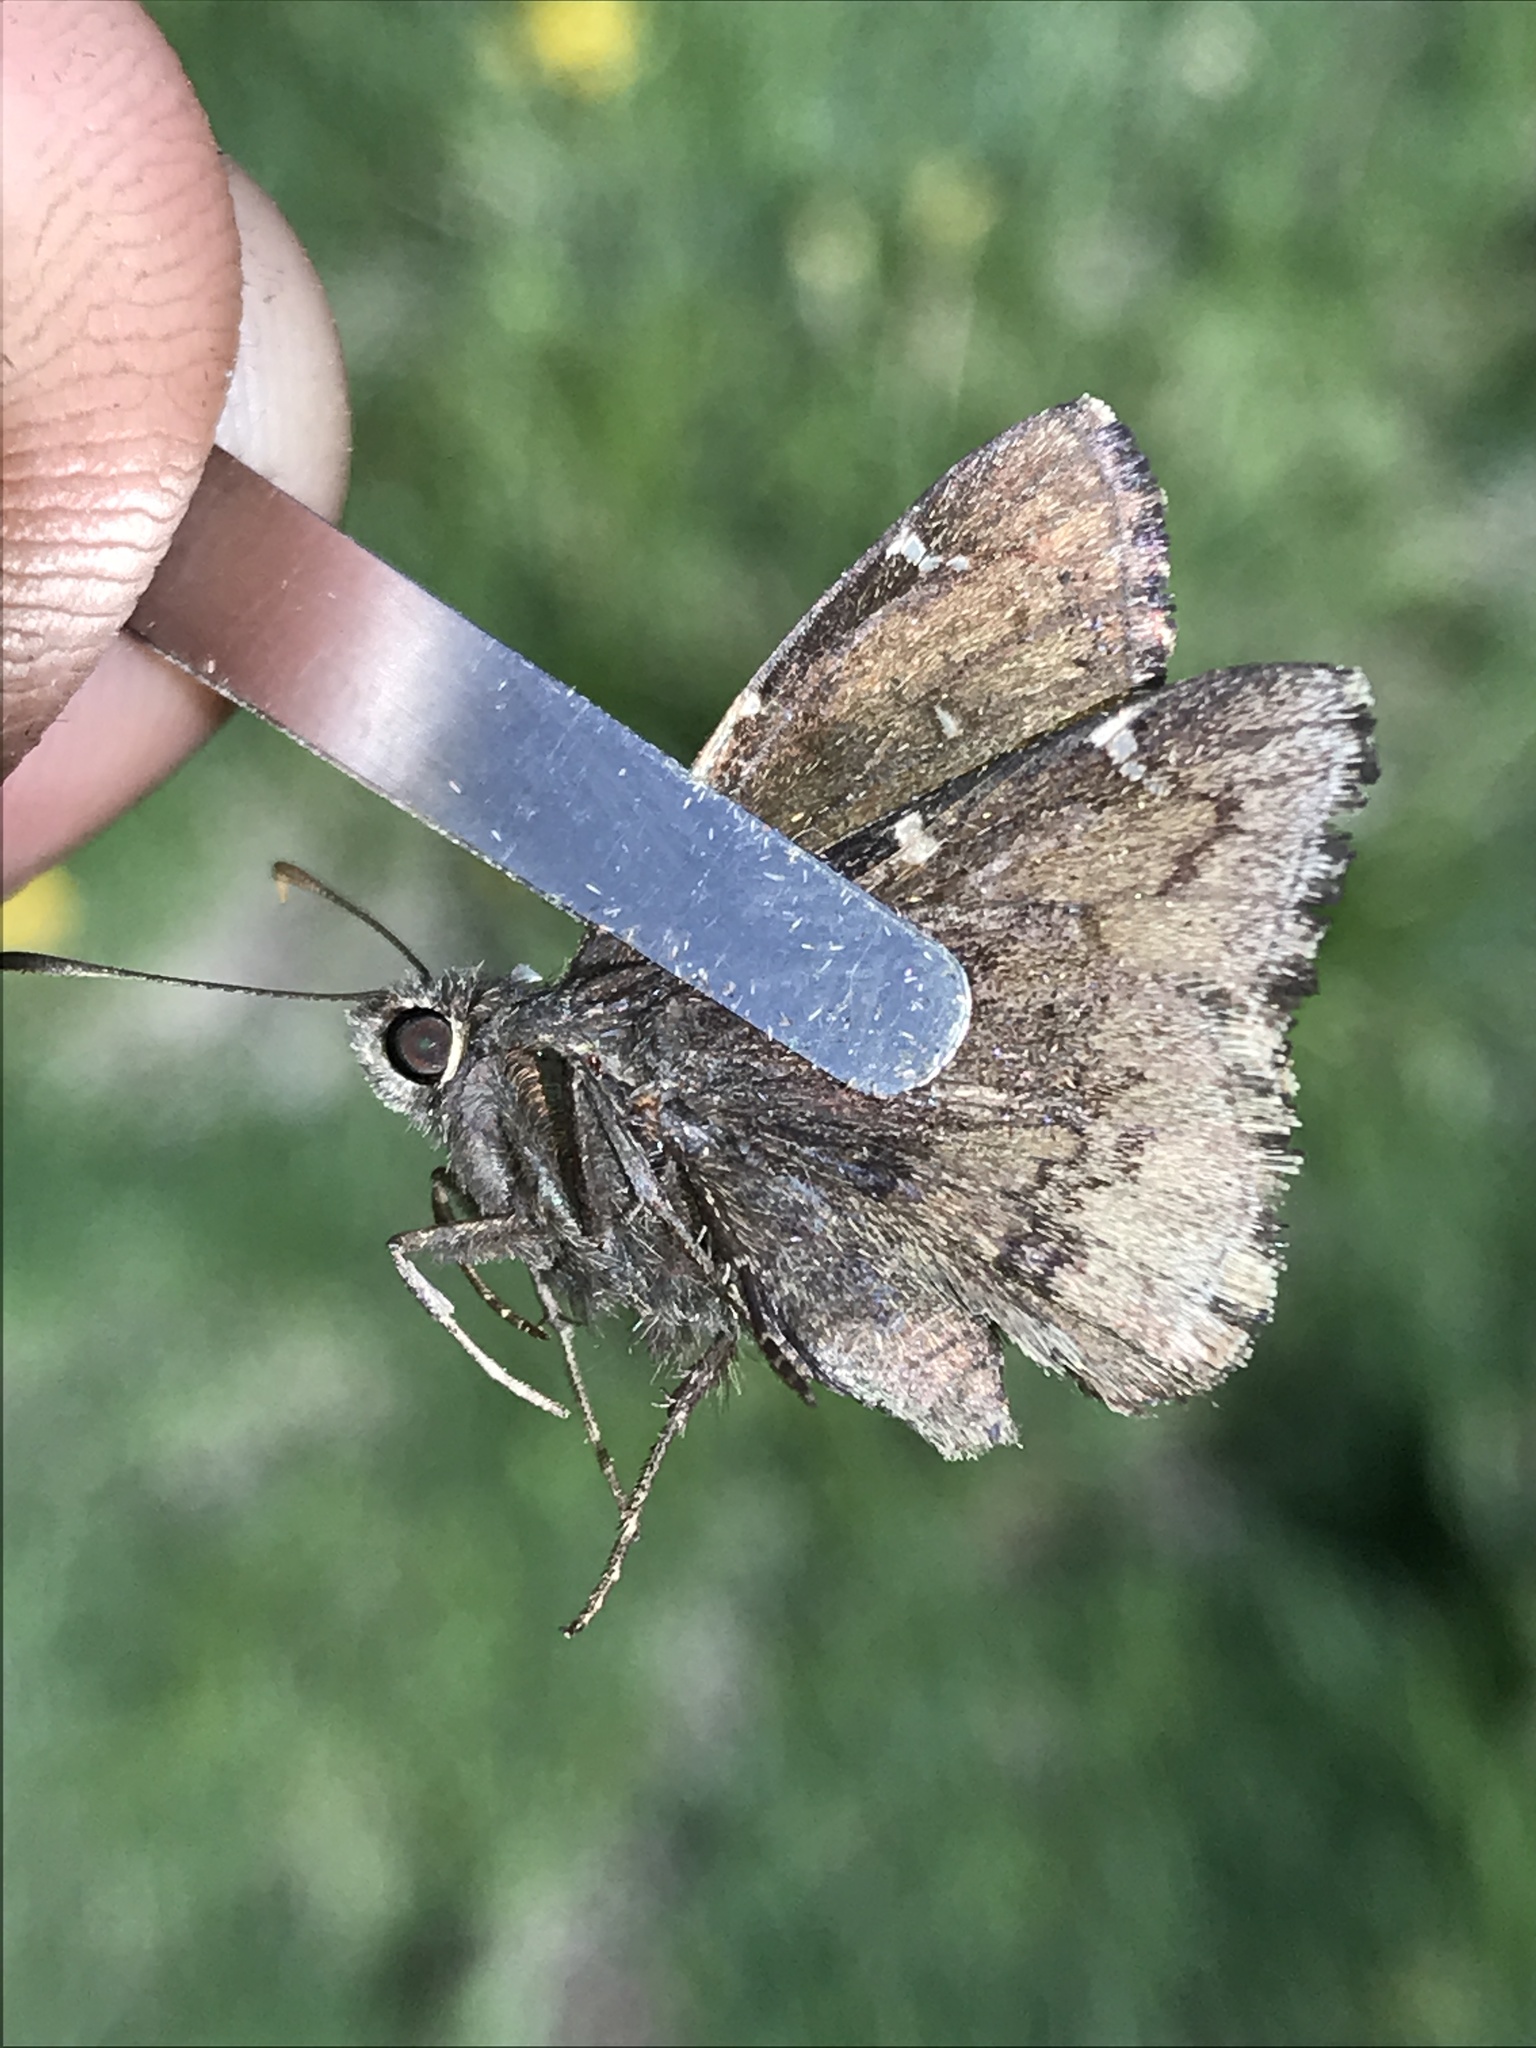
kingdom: Animalia
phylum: Arthropoda
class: Insecta
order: Lepidoptera
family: Hesperiidae
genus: Thorybes
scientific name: Thorybes pylades
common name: Northern cloudywing
